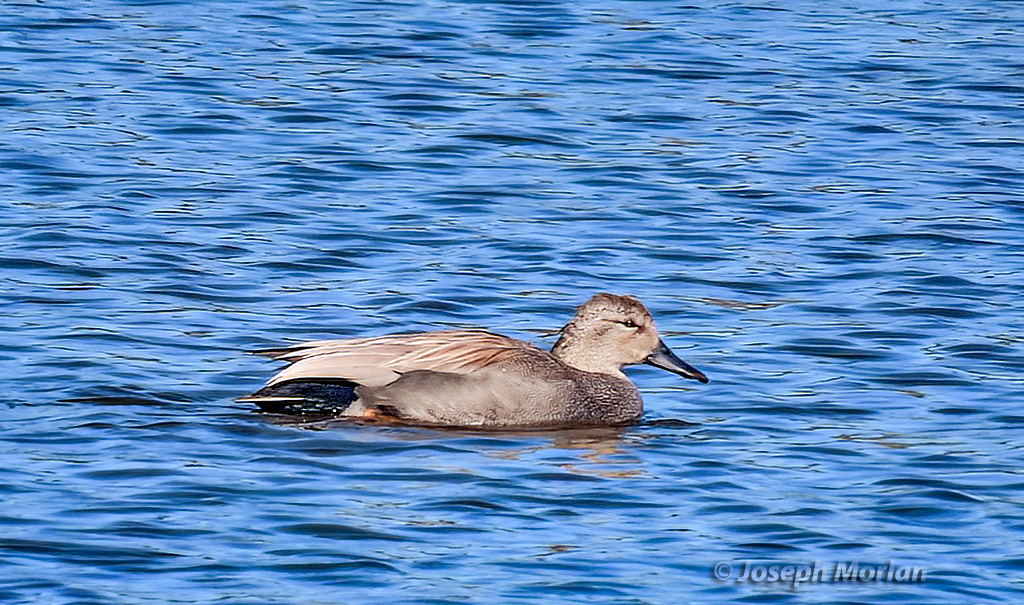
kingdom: Animalia
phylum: Chordata
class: Aves
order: Anseriformes
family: Anatidae
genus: Mareca
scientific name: Mareca strepera
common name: Gadwall
